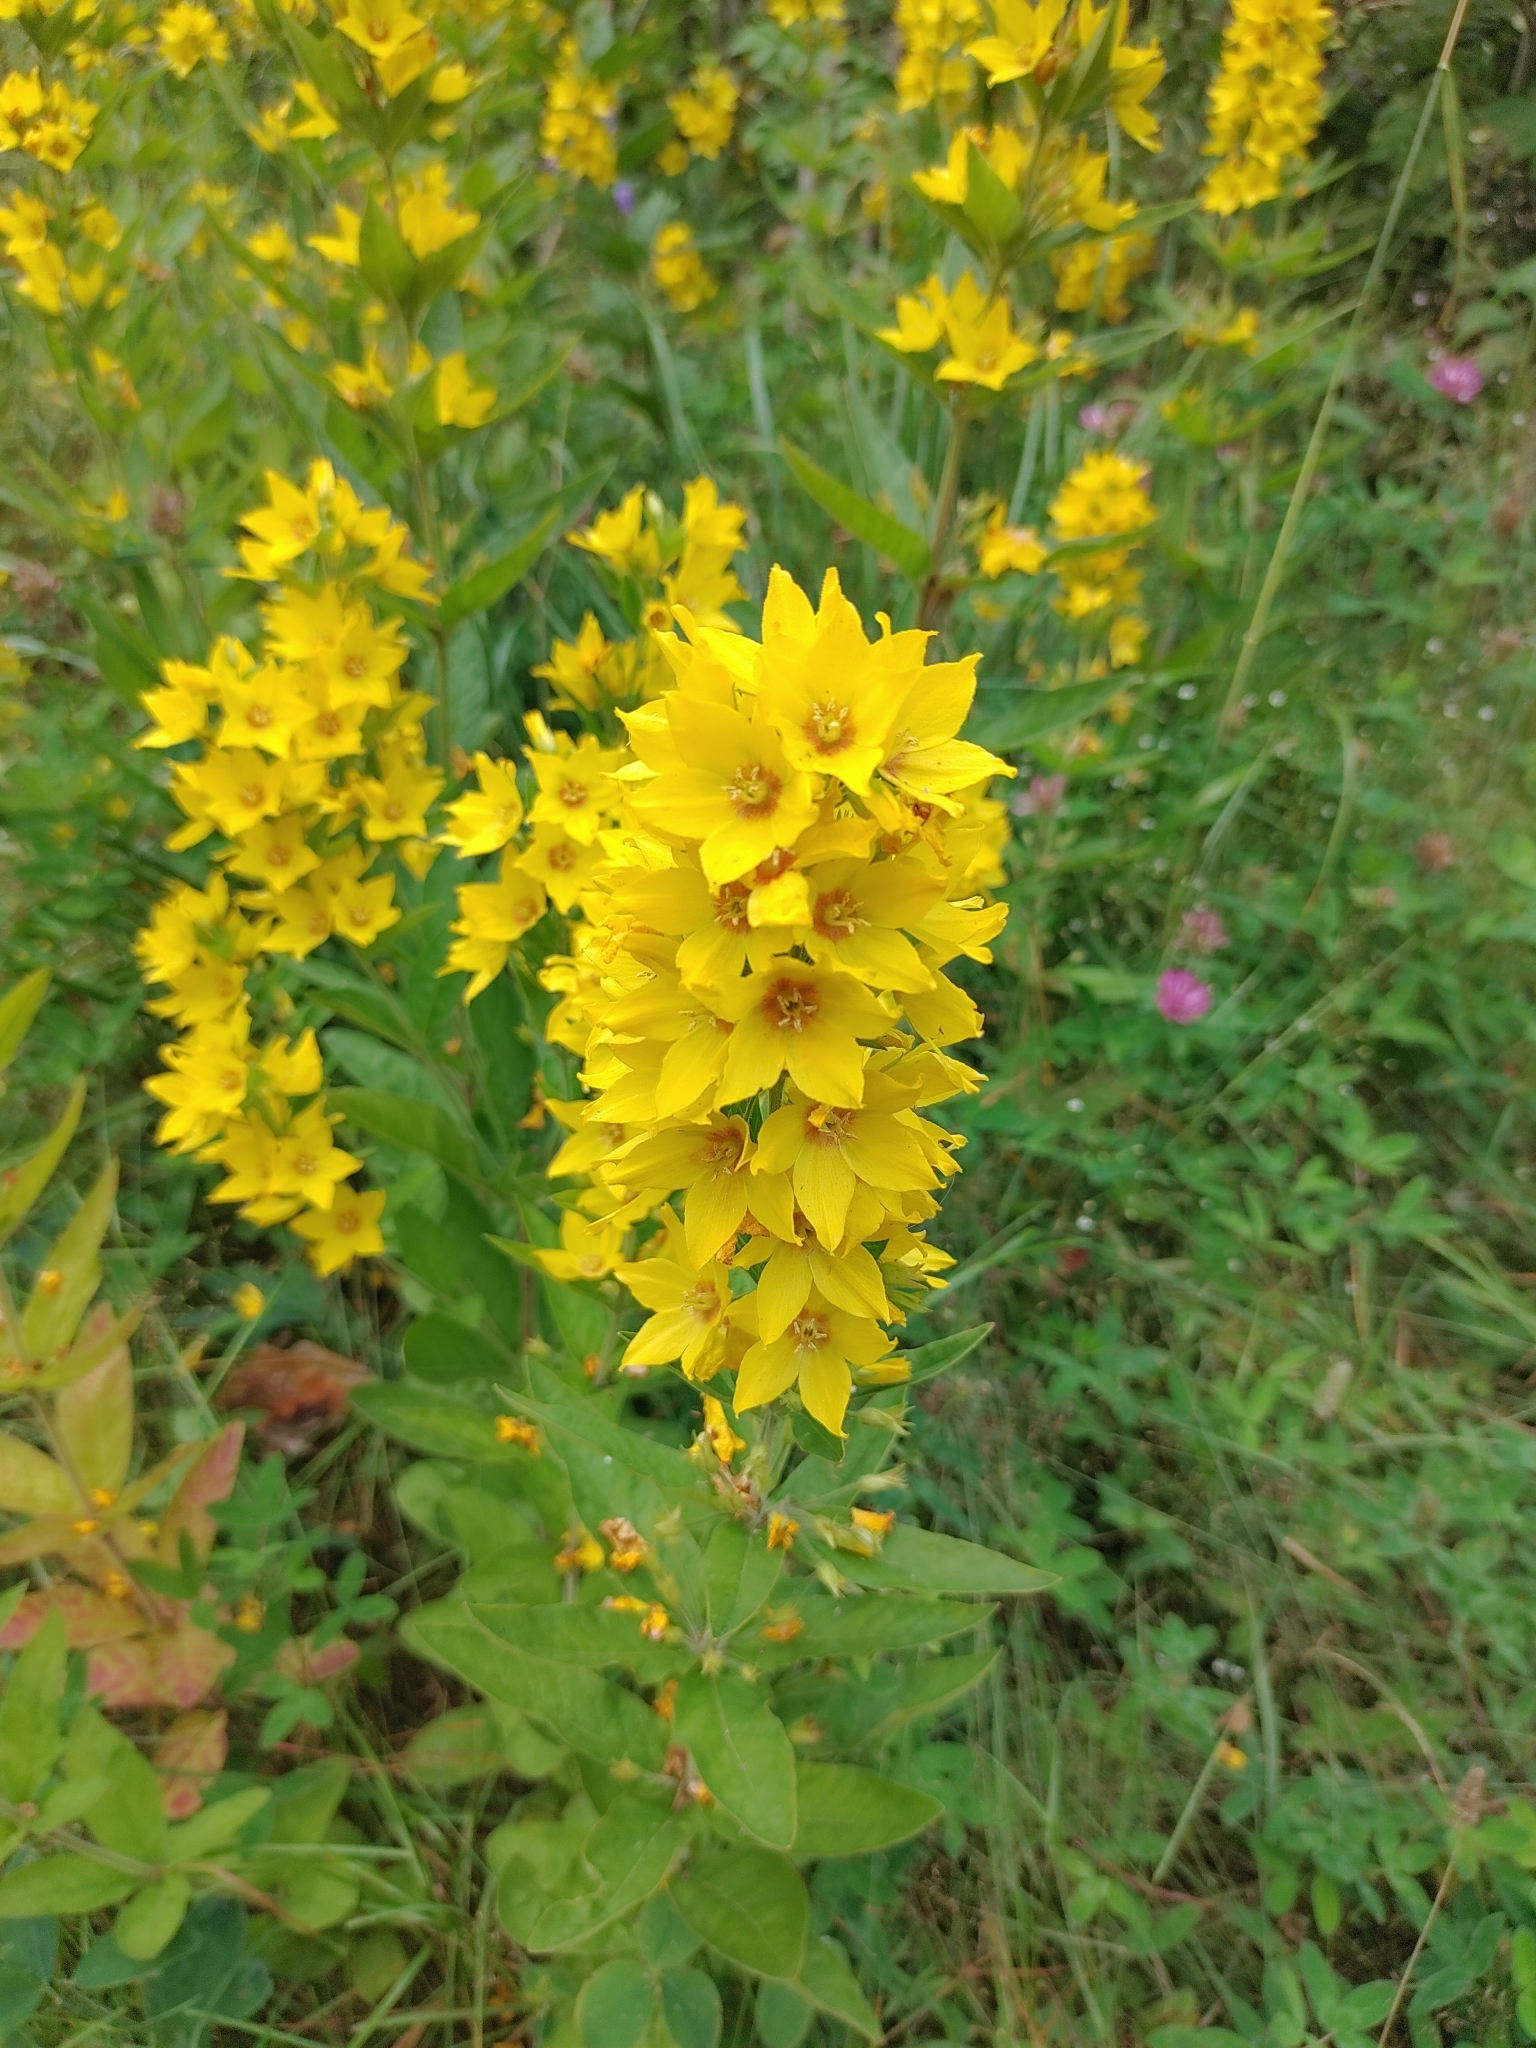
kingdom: Plantae
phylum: Tracheophyta
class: Magnoliopsida
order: Ericales
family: Primulaceae
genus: Lysimachia
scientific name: Lysimachia punctata
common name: Dotted loosestrife
